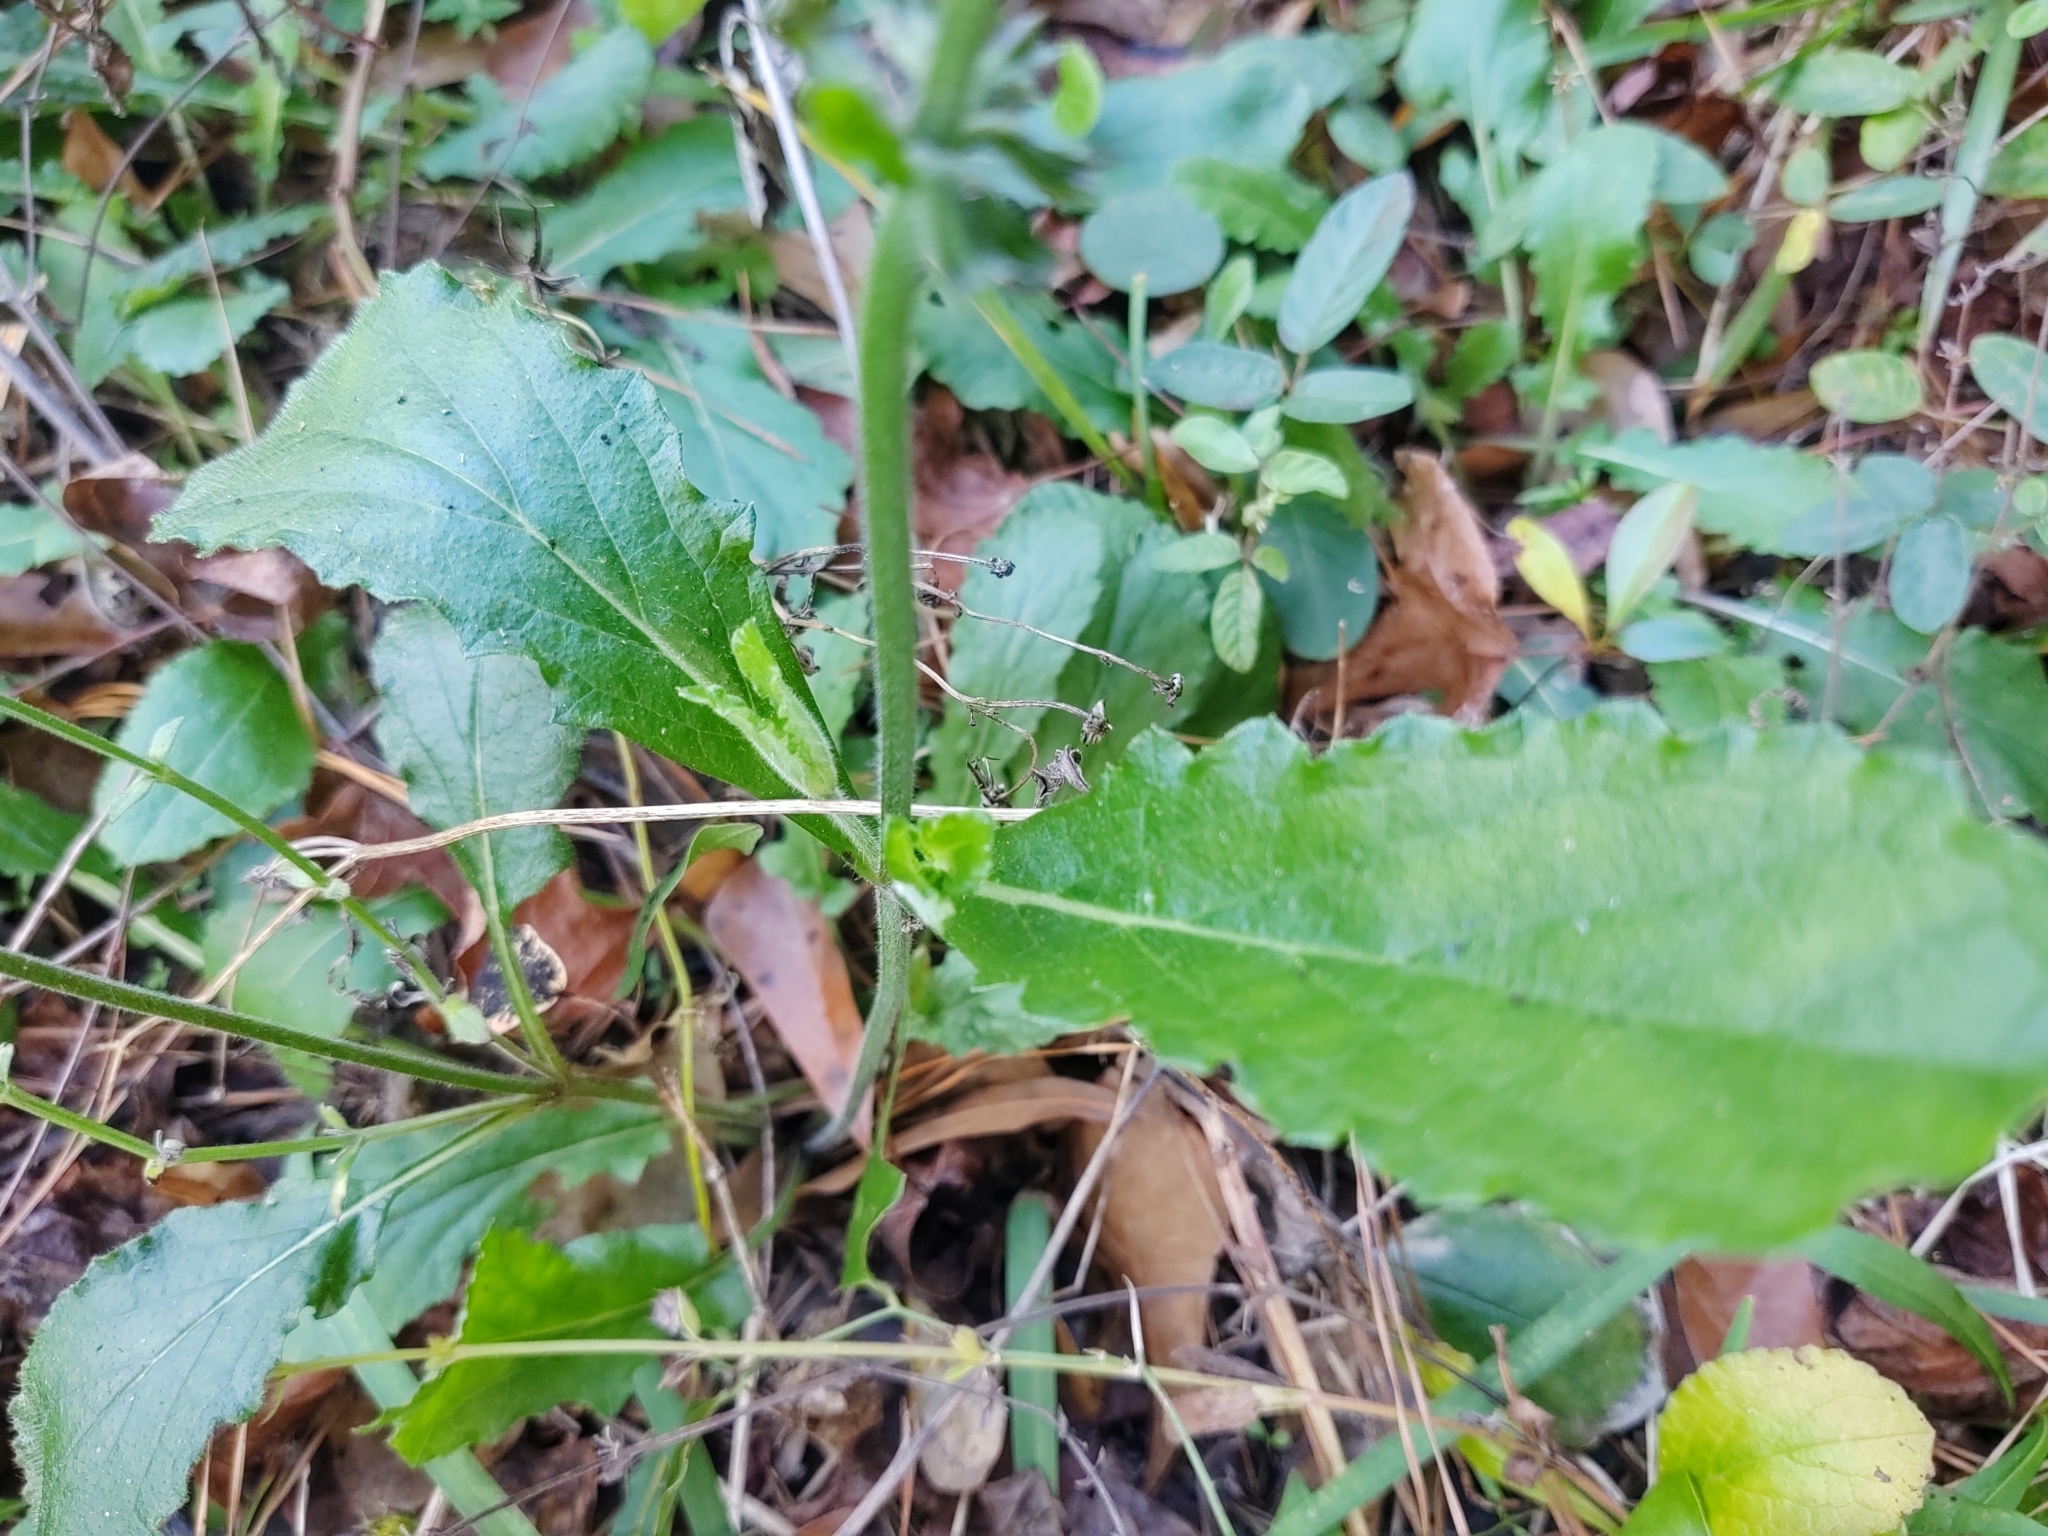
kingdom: Plantae
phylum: Tracheophyta
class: Magnoliopsida
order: Lamiales
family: Lamiaceae
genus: Salvia
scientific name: Salvia lyrata
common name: Cancerweed
